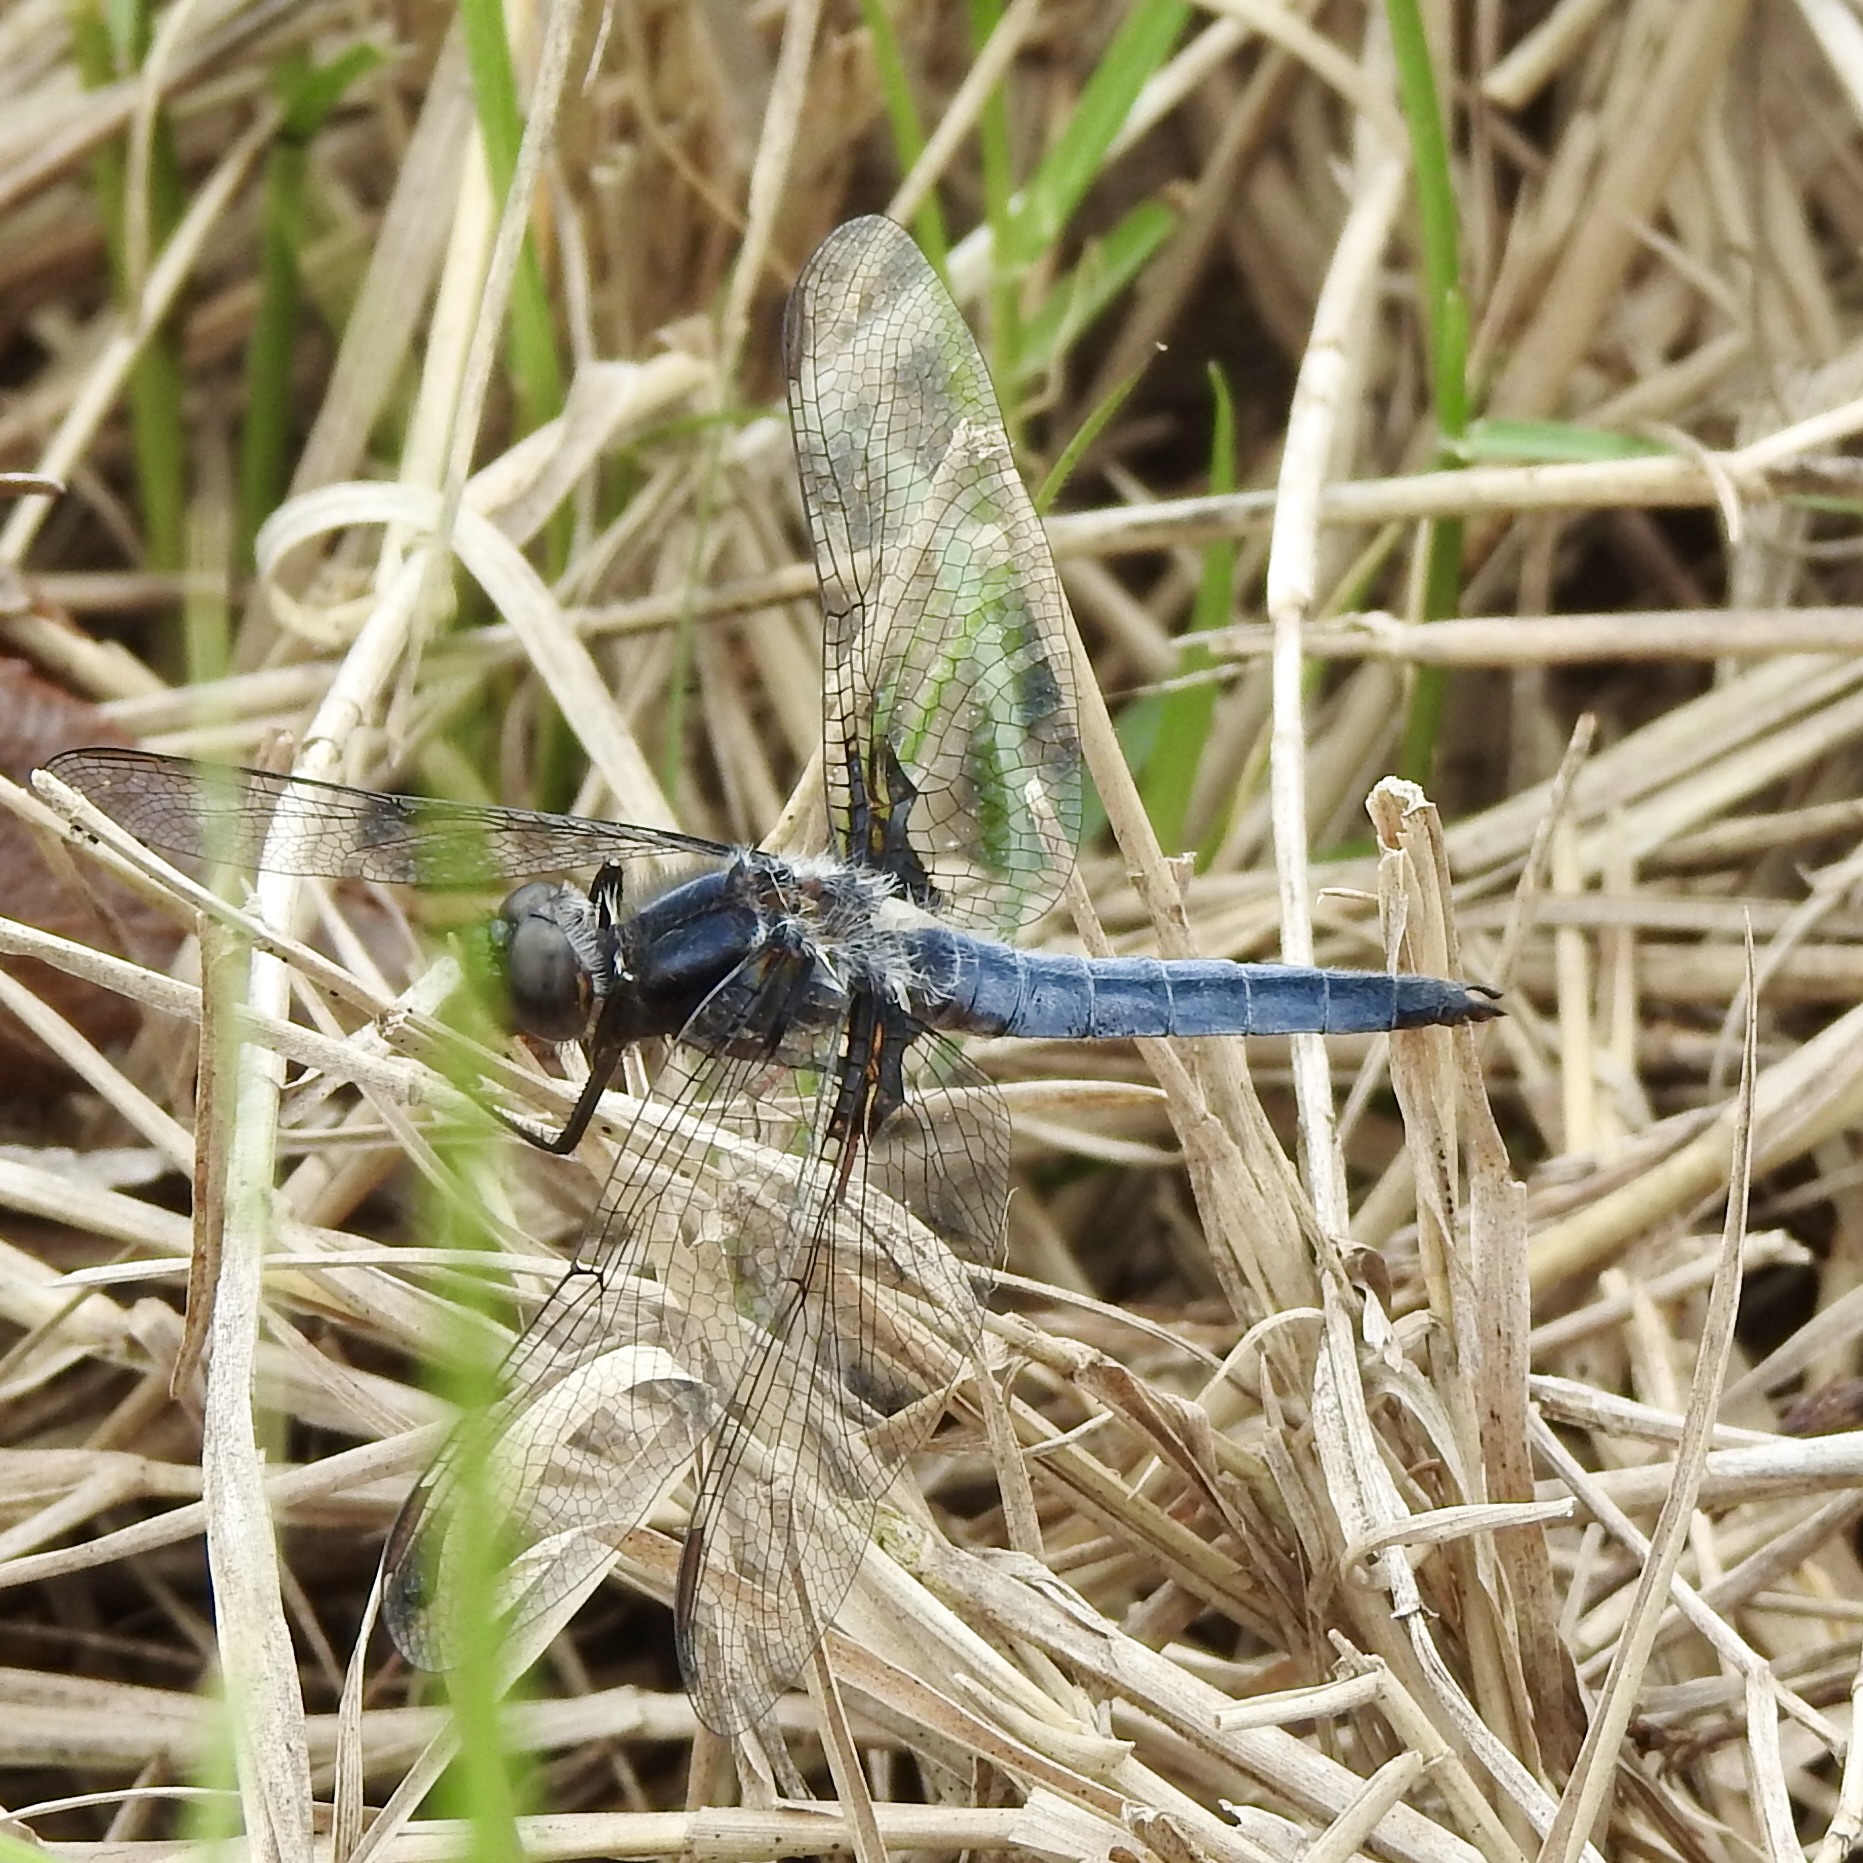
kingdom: Animalia
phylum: Arthropoda
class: Insecta
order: Odonata
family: Libellulidae
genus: Ladona
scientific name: Ladona deplanata
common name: Blue corporal
